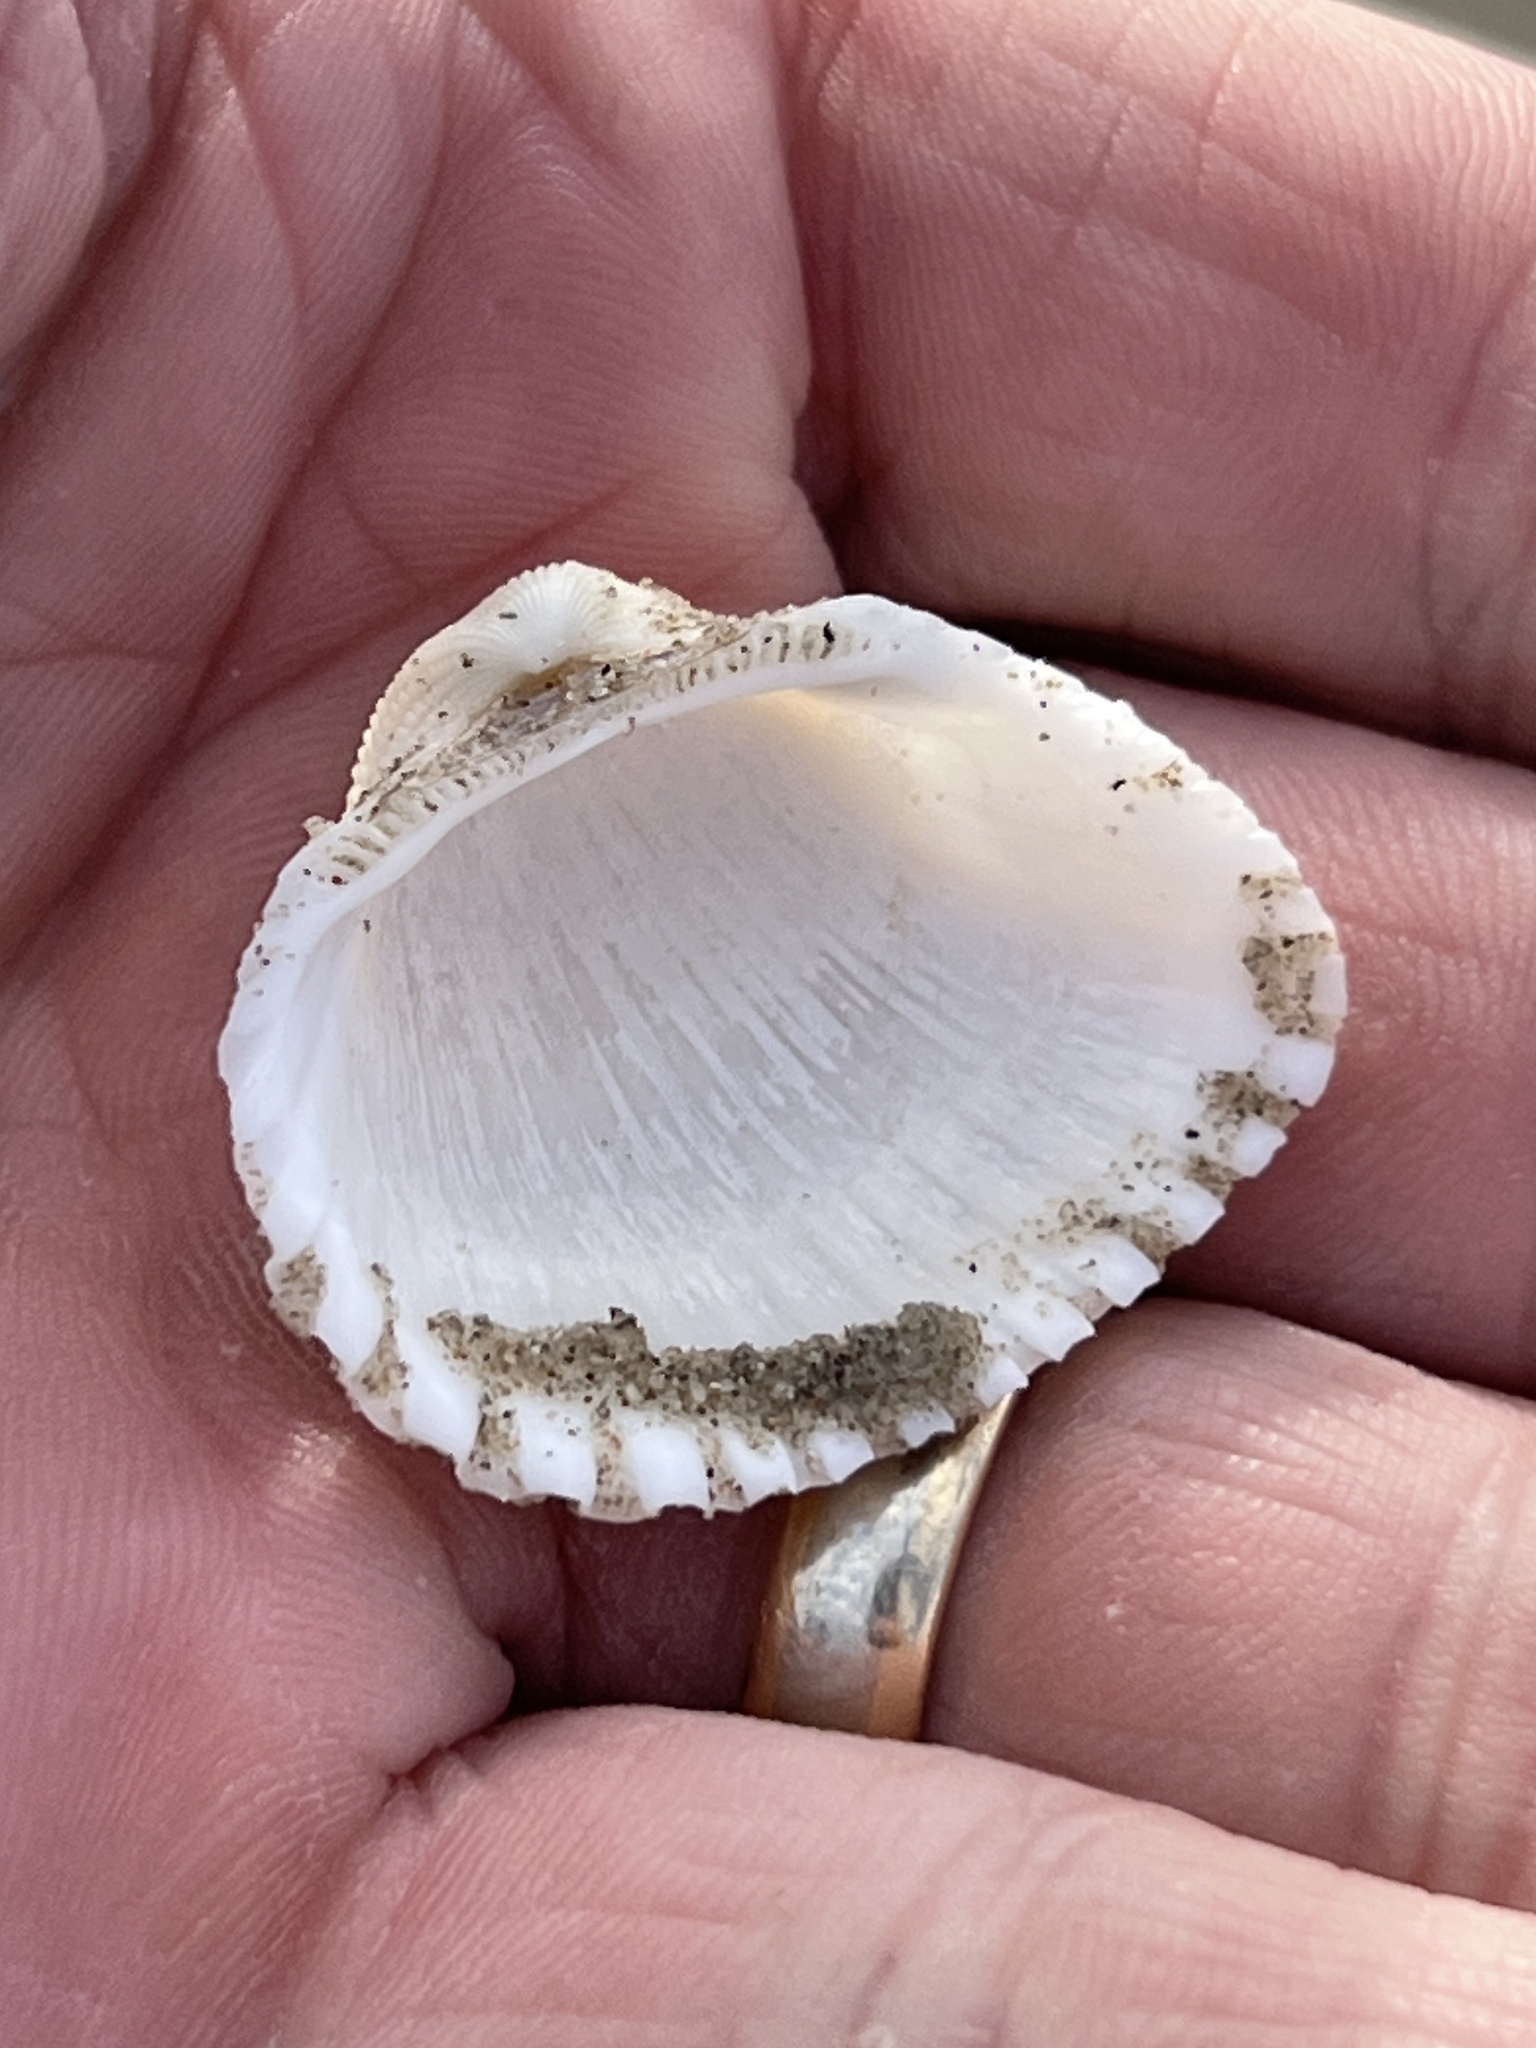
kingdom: Animalia
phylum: Mollusca
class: Bivalvia
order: Arcida
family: Arcidae
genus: Anadara
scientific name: Anadara brasiliana
